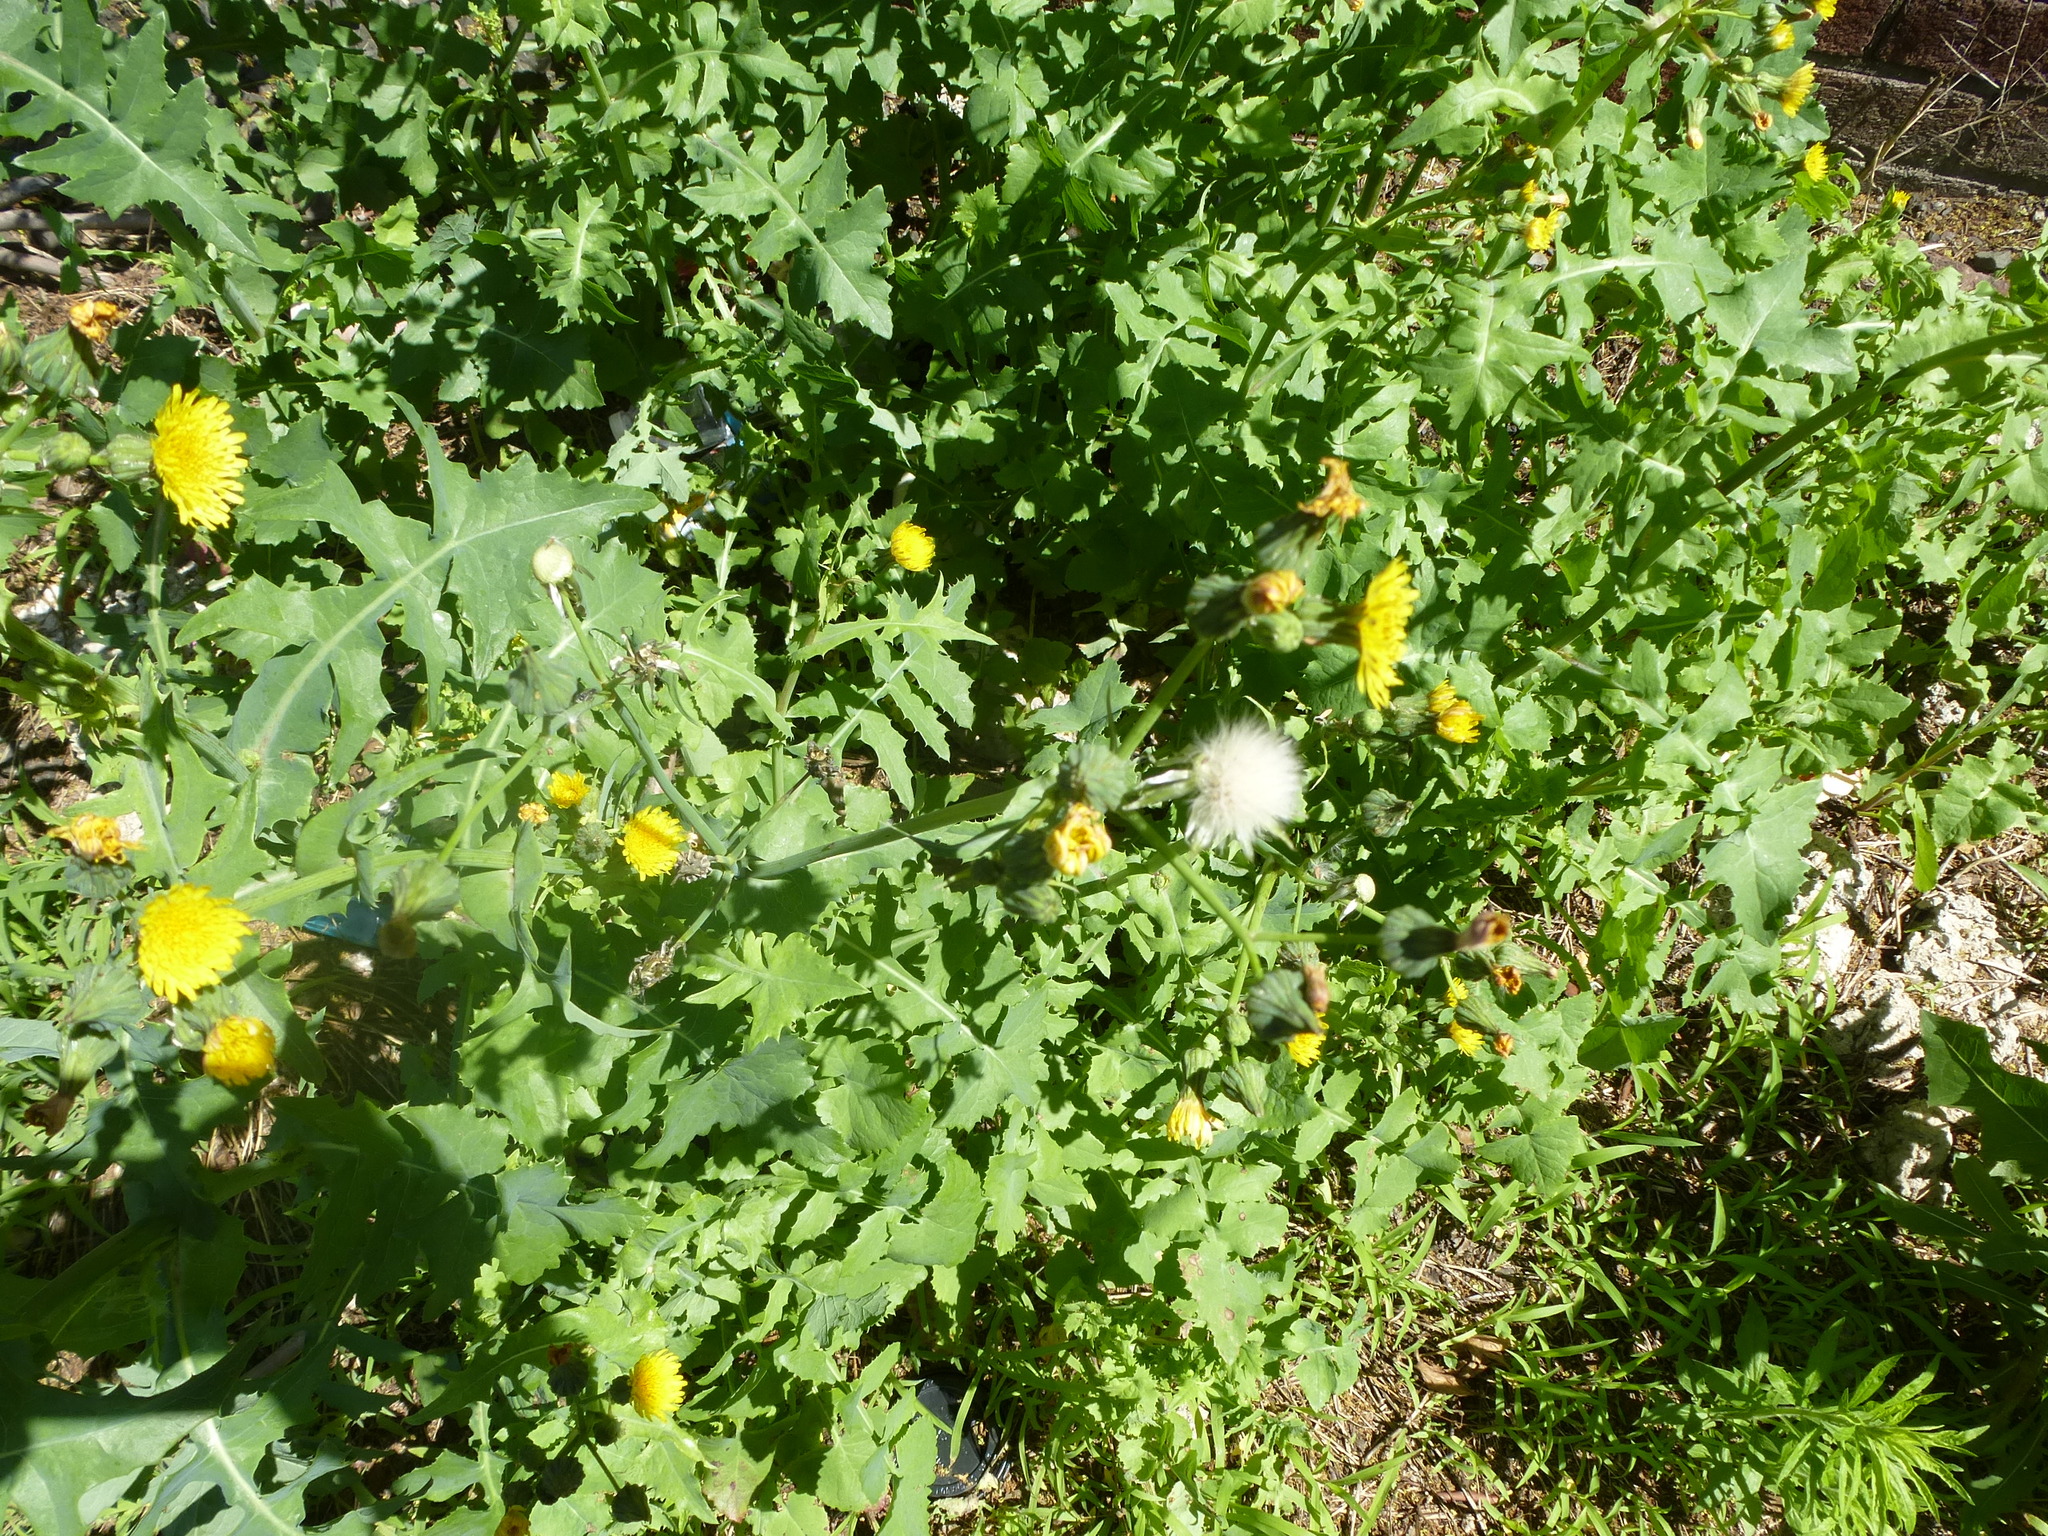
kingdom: Plantae
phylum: Tracheophyta
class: Magnoliopsida
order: Asterales
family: Asteraceae
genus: Sonchus
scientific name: Sonchus oleraceus
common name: Common sowthistle
